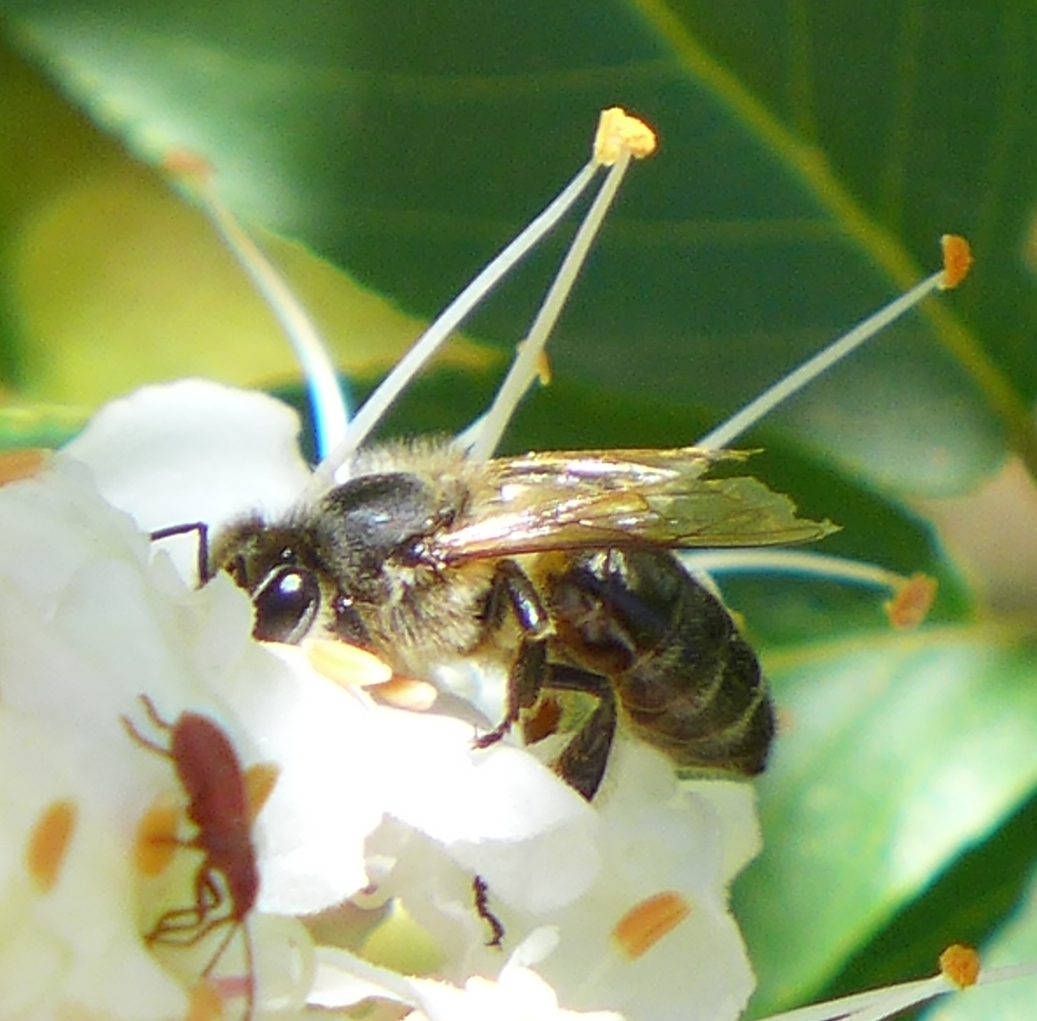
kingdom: Animalia
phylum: Arthropoda
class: Insecta
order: Hymenoptera
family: Apidae
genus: Apis
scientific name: Apis mellifera
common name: Honey bee
